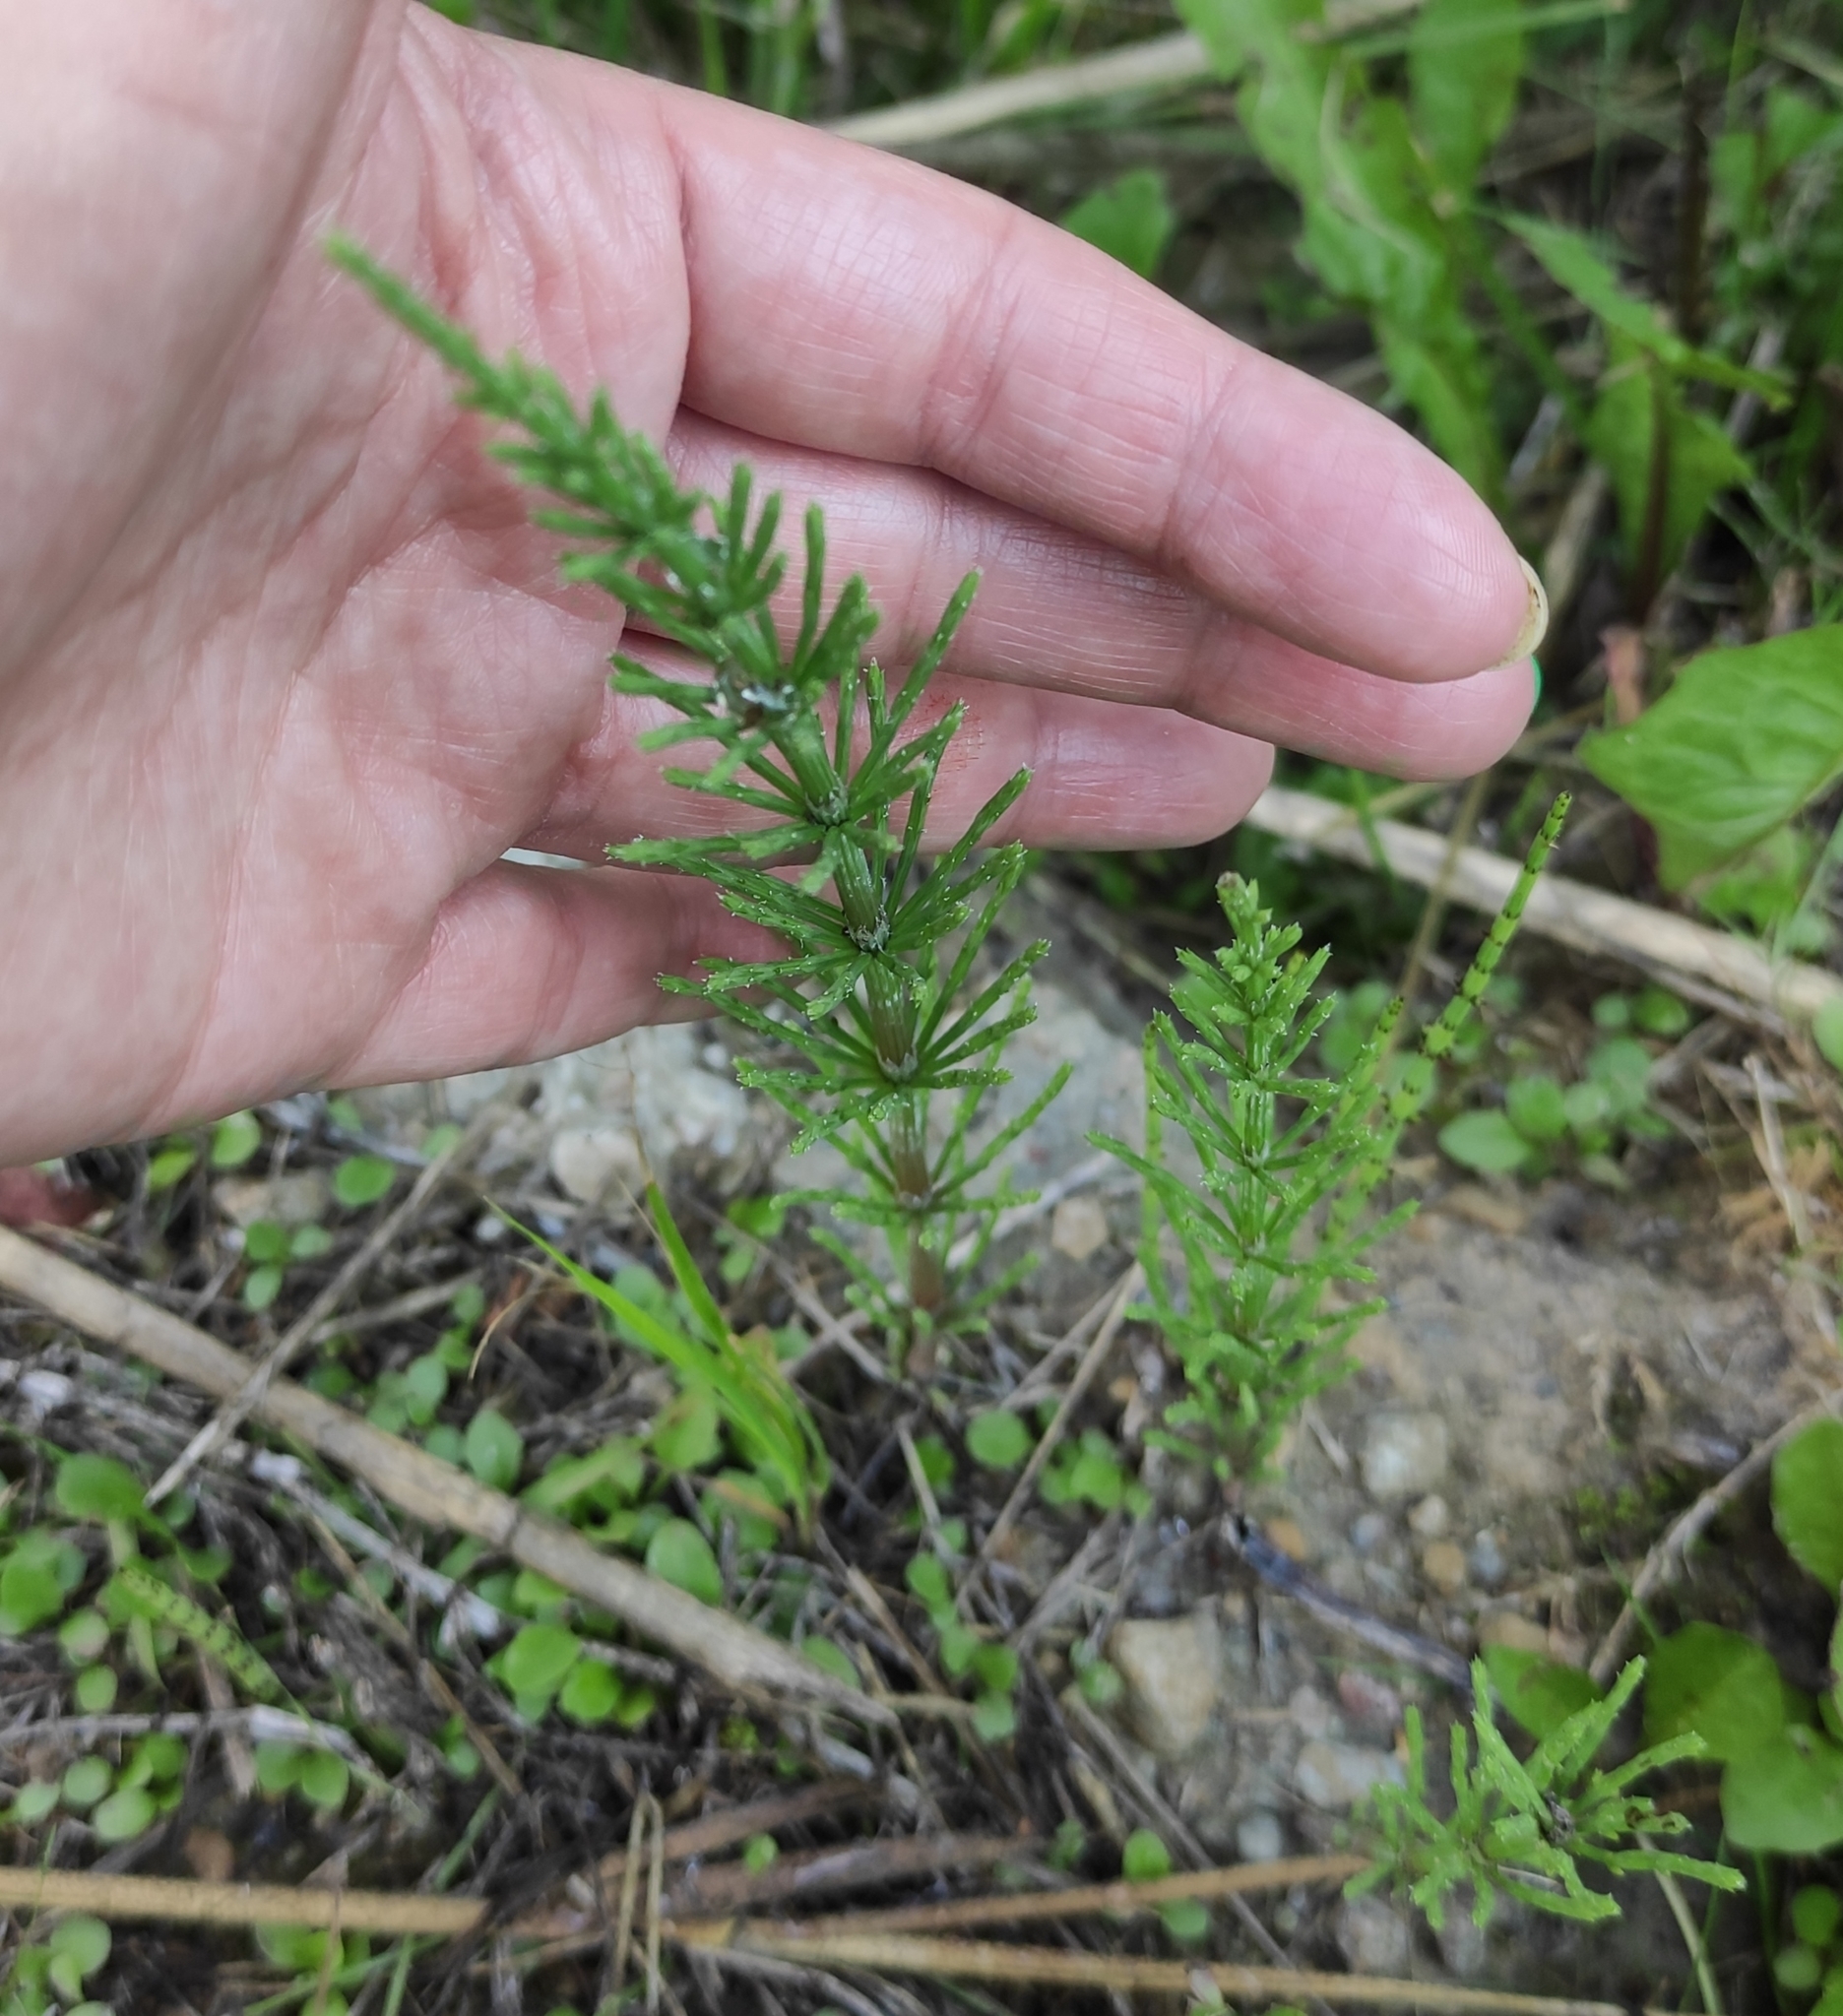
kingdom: Plantae
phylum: Tracheophyta
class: Polypodiopsida
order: Equisetales
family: Equisetaceae
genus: Equisetum
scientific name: Equisetum arvense
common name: Field horsetail
